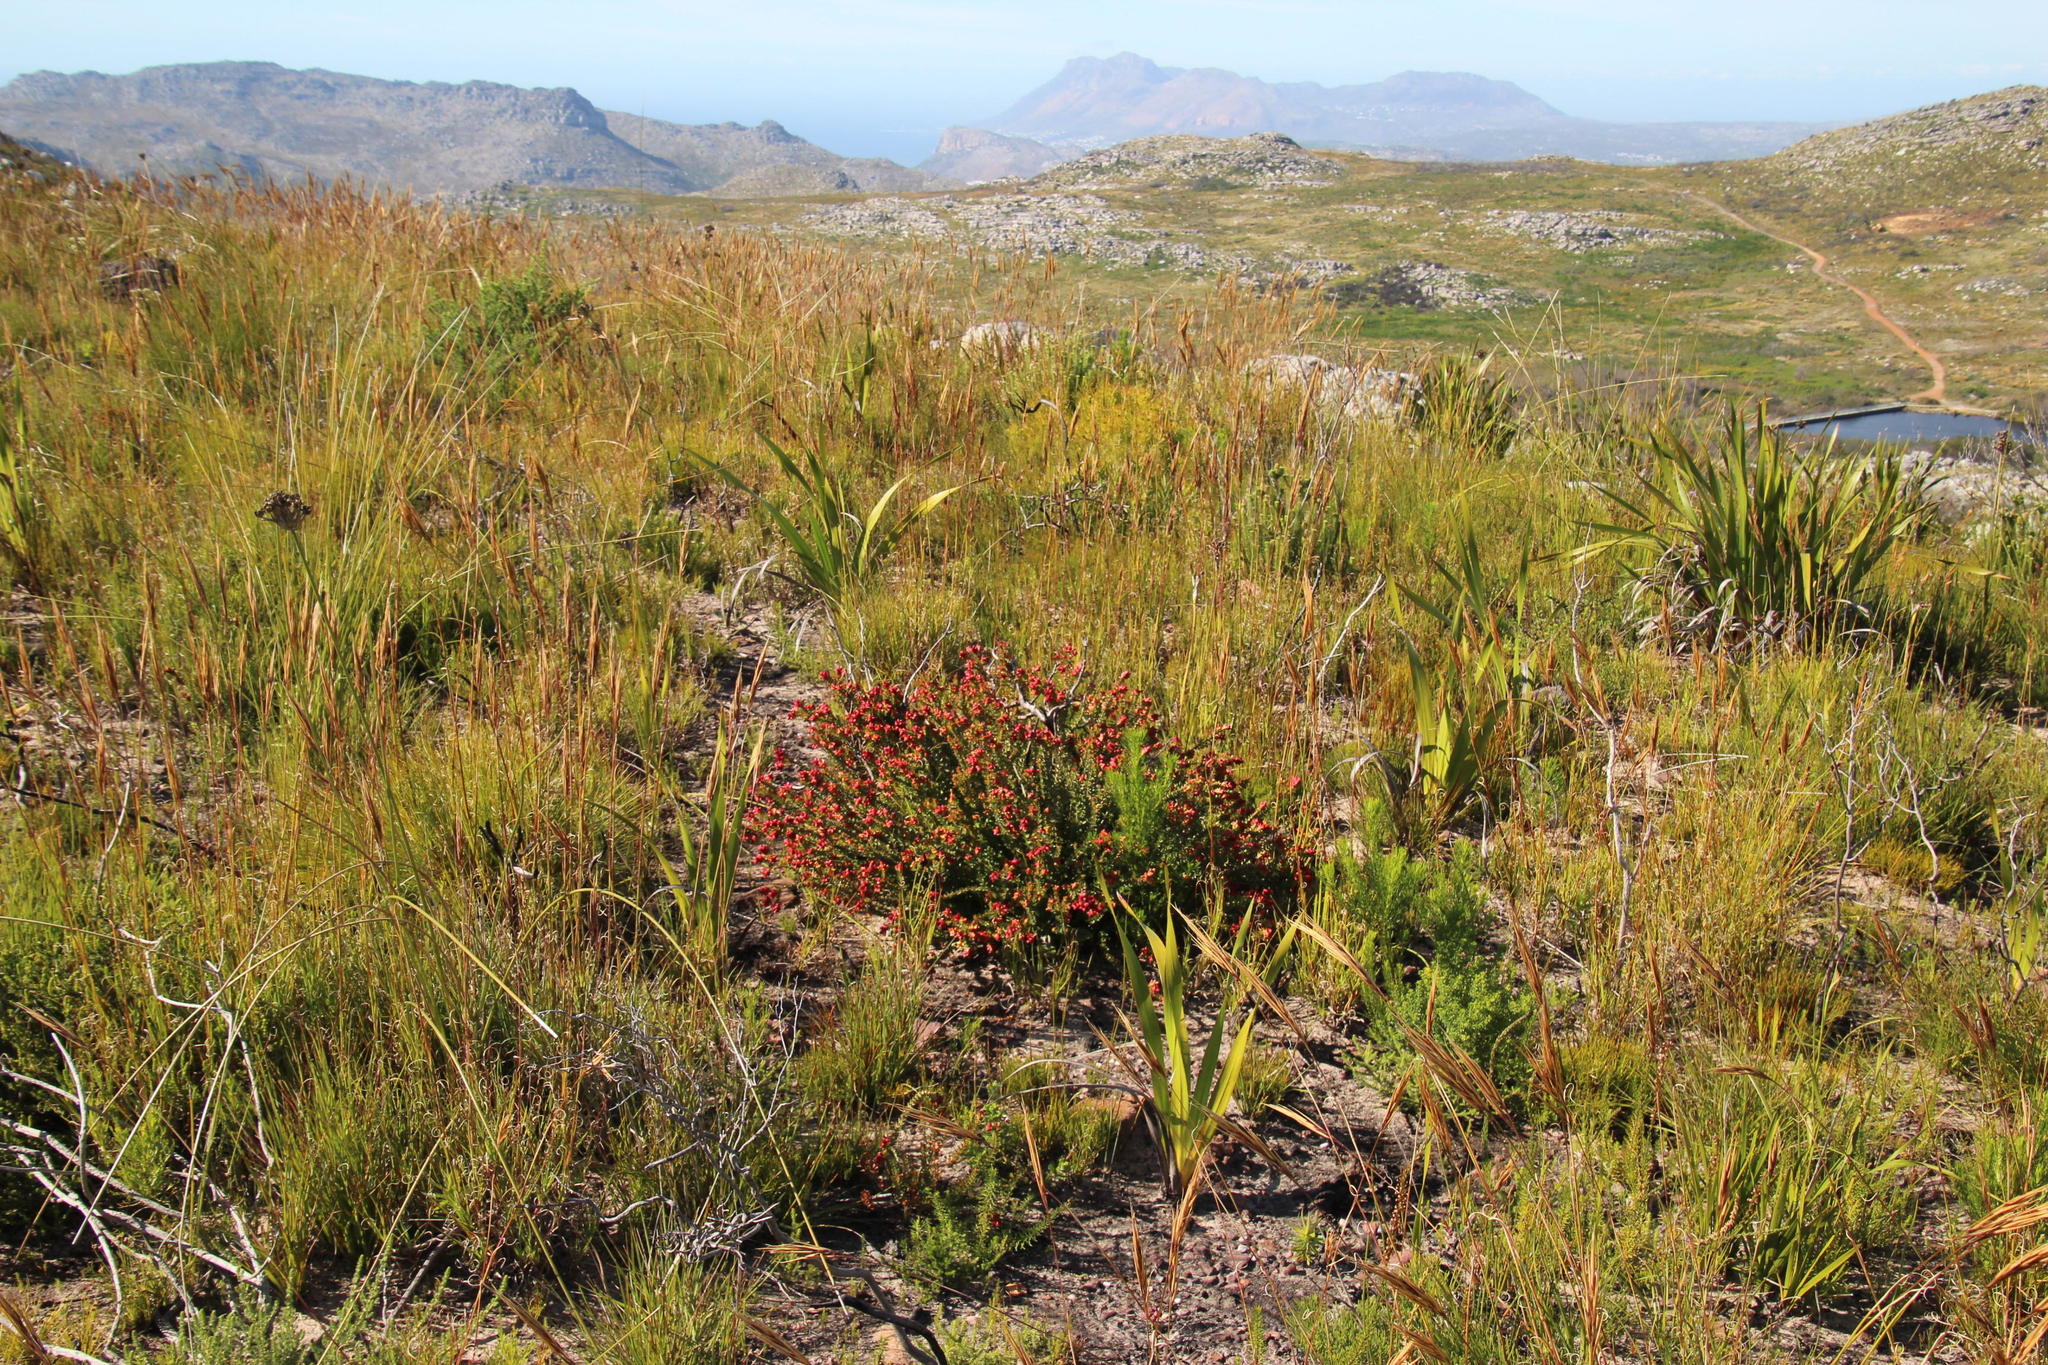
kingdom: Plantae
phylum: Tracheophyta
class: Magnoliopsida
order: Myrtales
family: Penaeaceae
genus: Penaea
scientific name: Penaea mucronata
